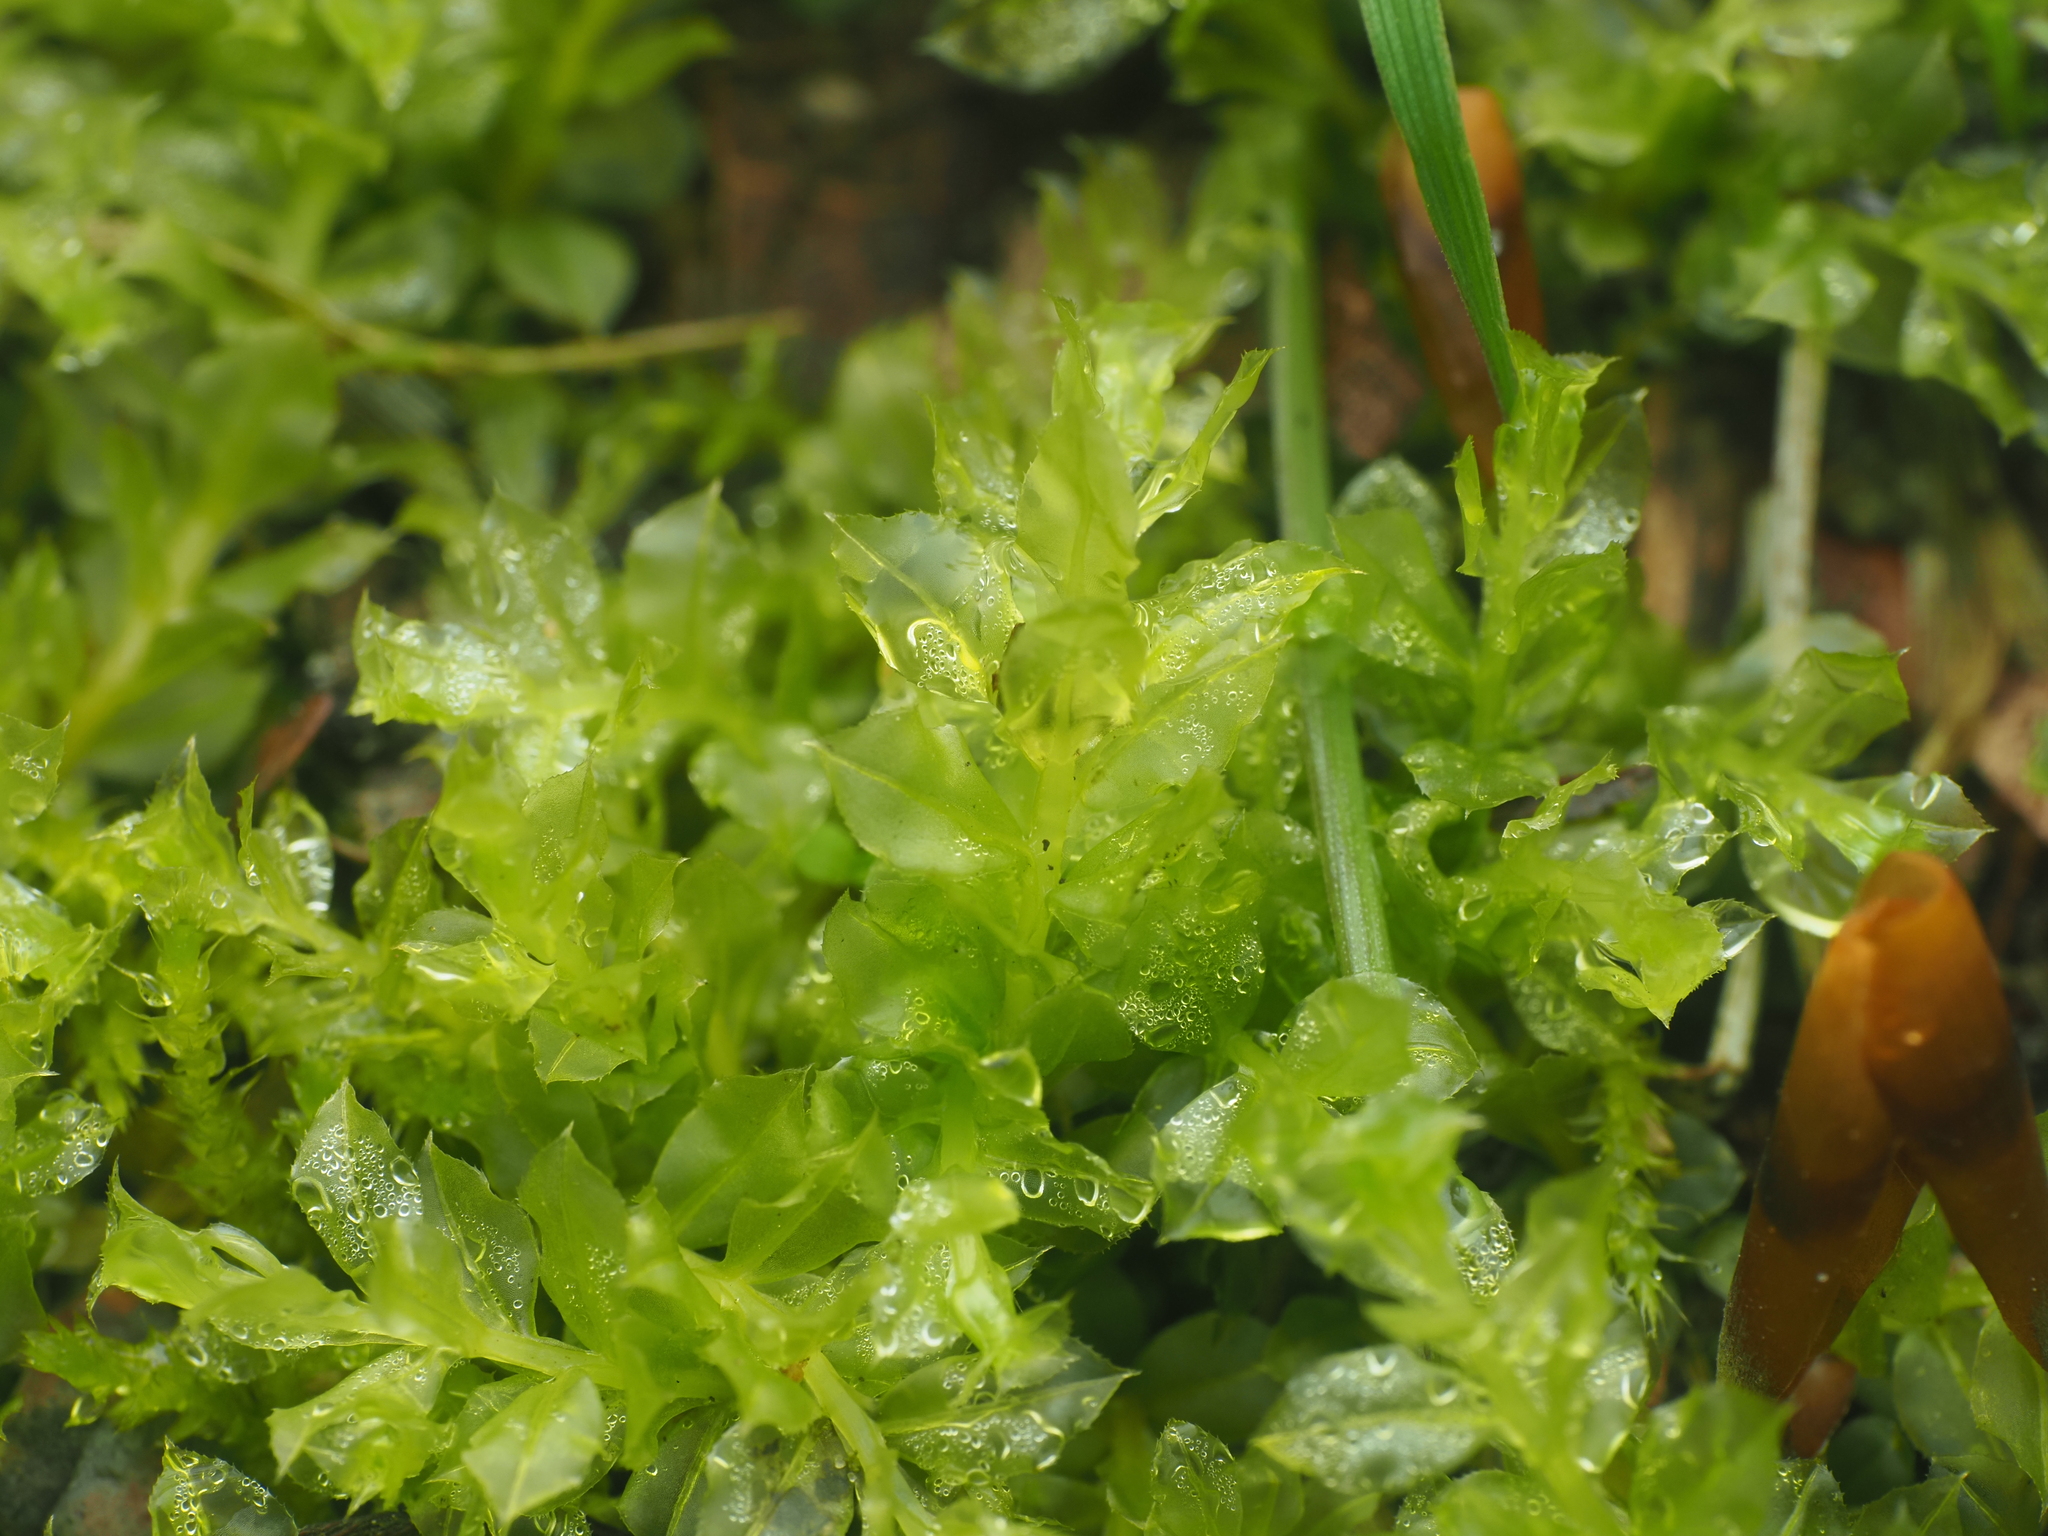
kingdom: Plantae
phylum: Bryophyta
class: Bryopsida
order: Bryales
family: Mniaceae
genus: Plagiomnium
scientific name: Plagiomnium cuspidatum
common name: Woodsy leafy moss
